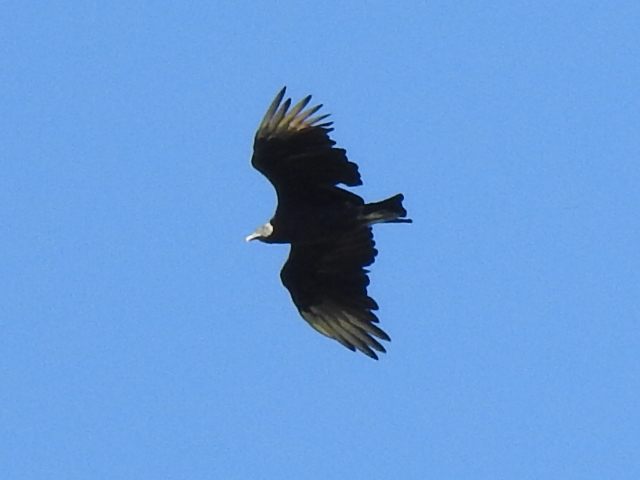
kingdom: Animalia
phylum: Chordata
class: Aves
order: Accipitriformes
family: Cathartidae
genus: Coragyps
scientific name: Coragyps atratus
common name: Black vulture
